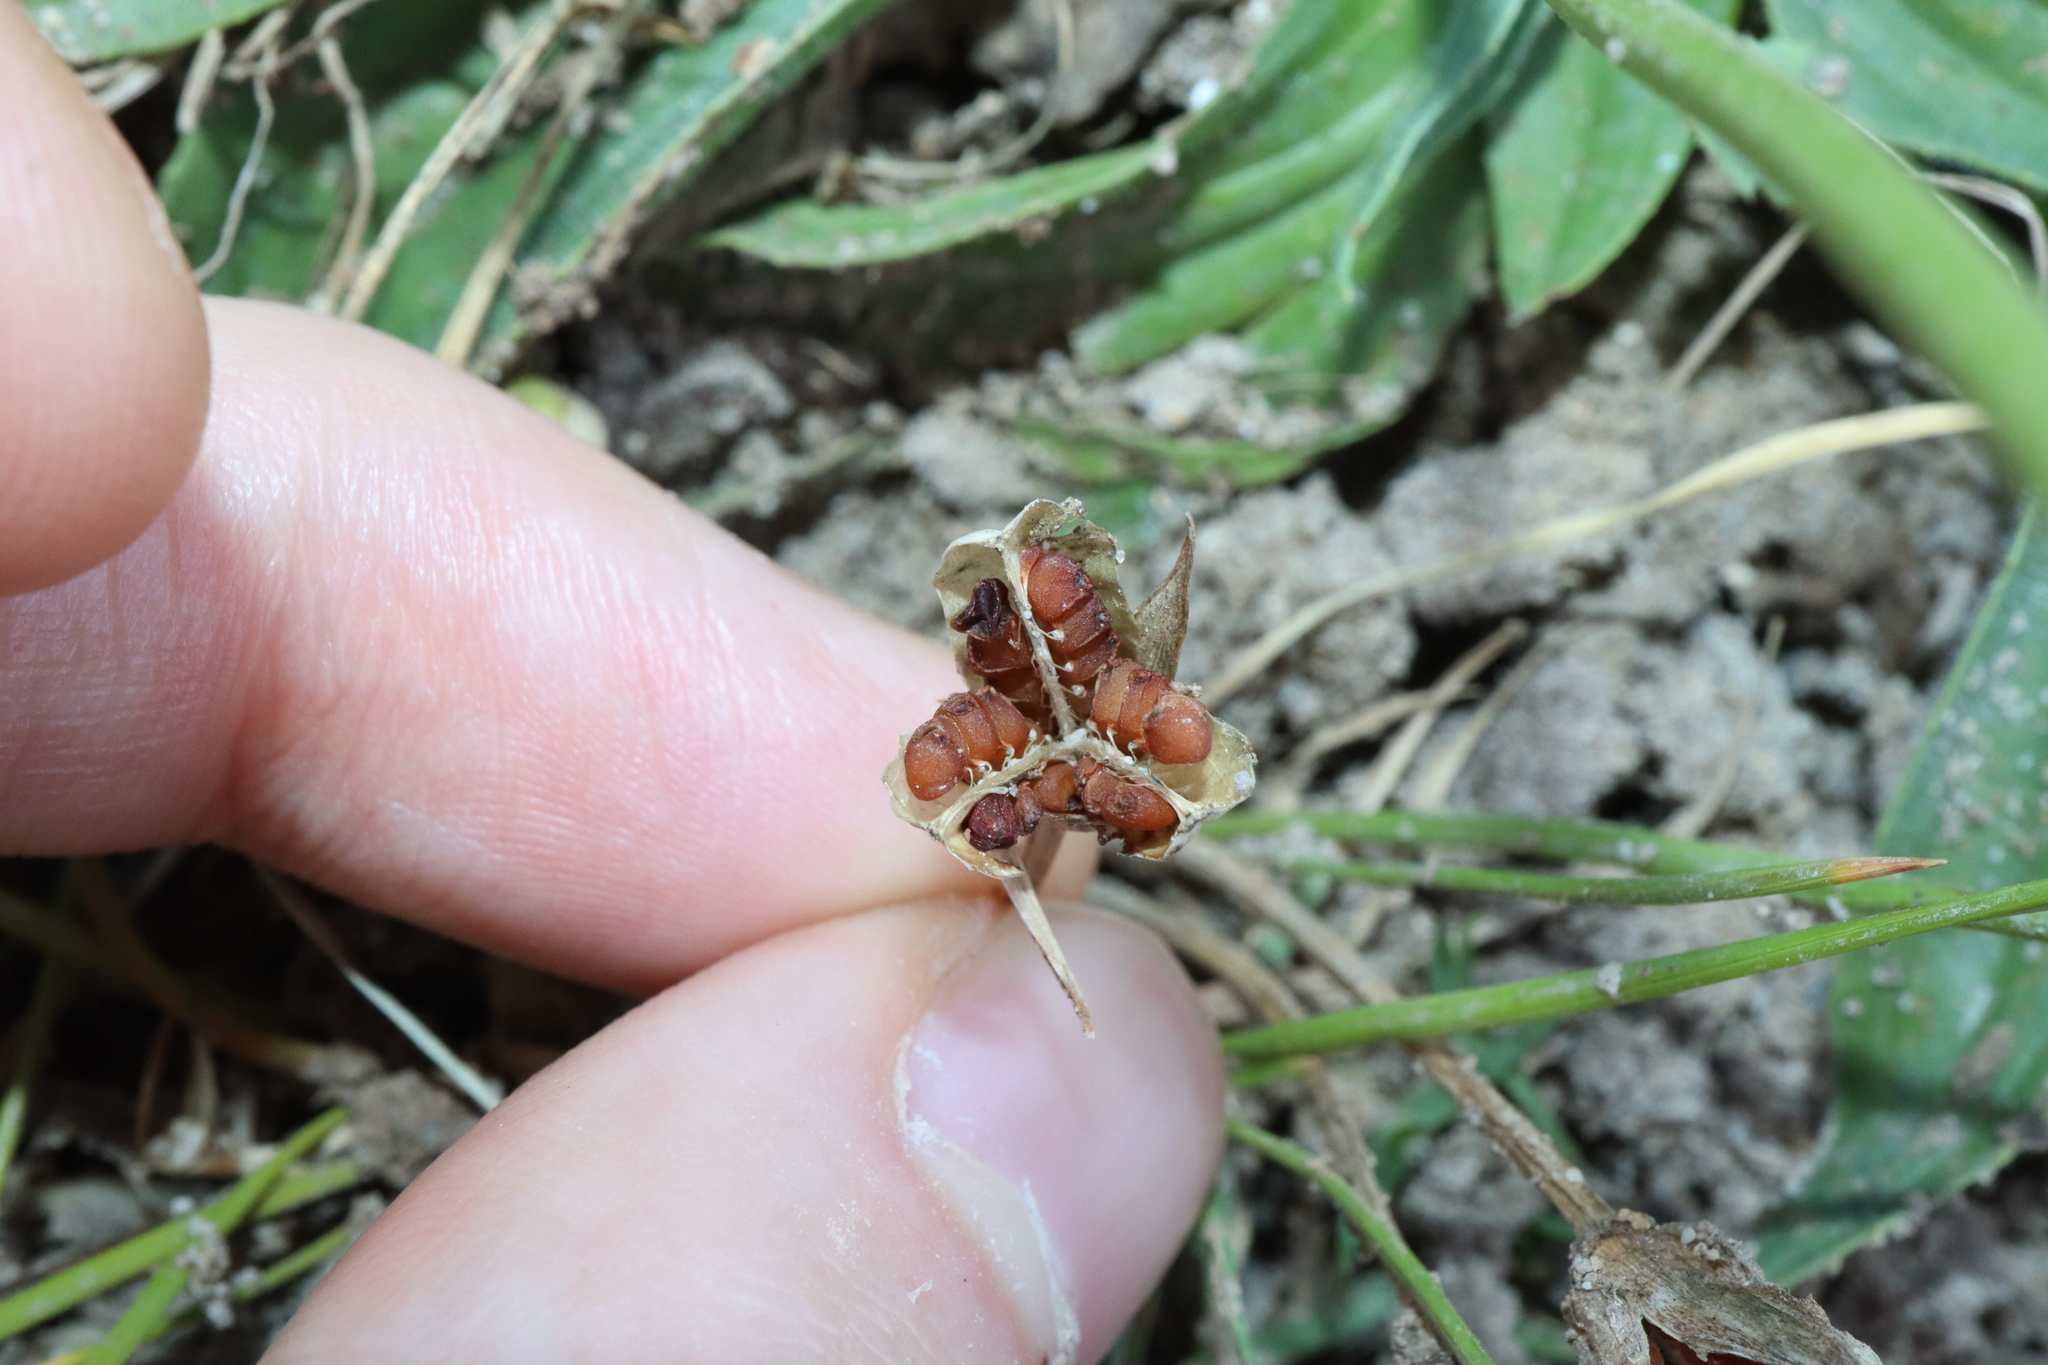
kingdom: Plantae
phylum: Tracheophyta
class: Liliopsida
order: Asparagales
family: Iridaceae
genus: Romulea
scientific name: Romulea rosea
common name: Oniongrass
